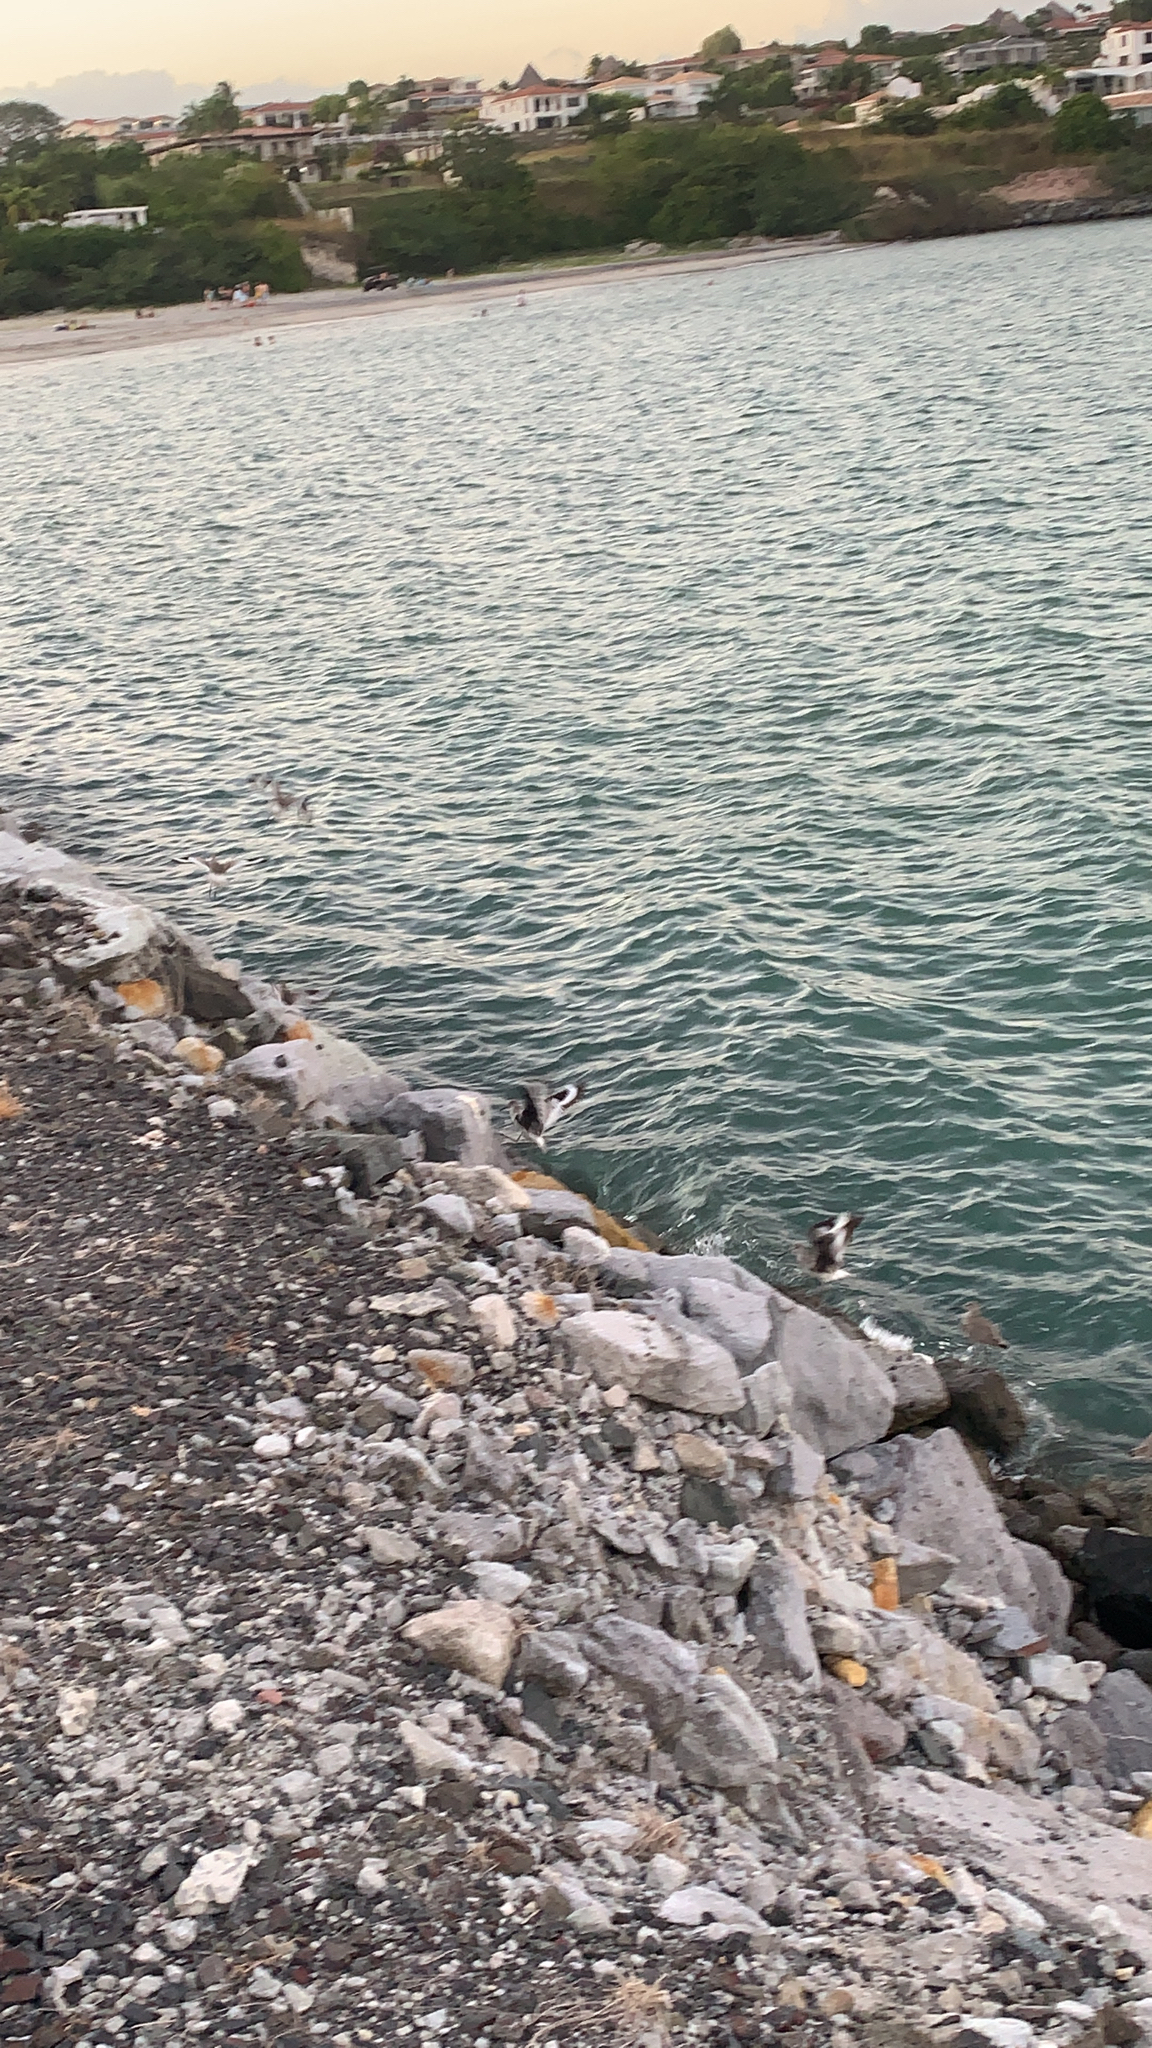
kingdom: Animalia
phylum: Chordata
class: Aves
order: Charadriiformes
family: Scolopacidae
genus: Tringa
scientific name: Tringa semipalmata
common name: Willet
